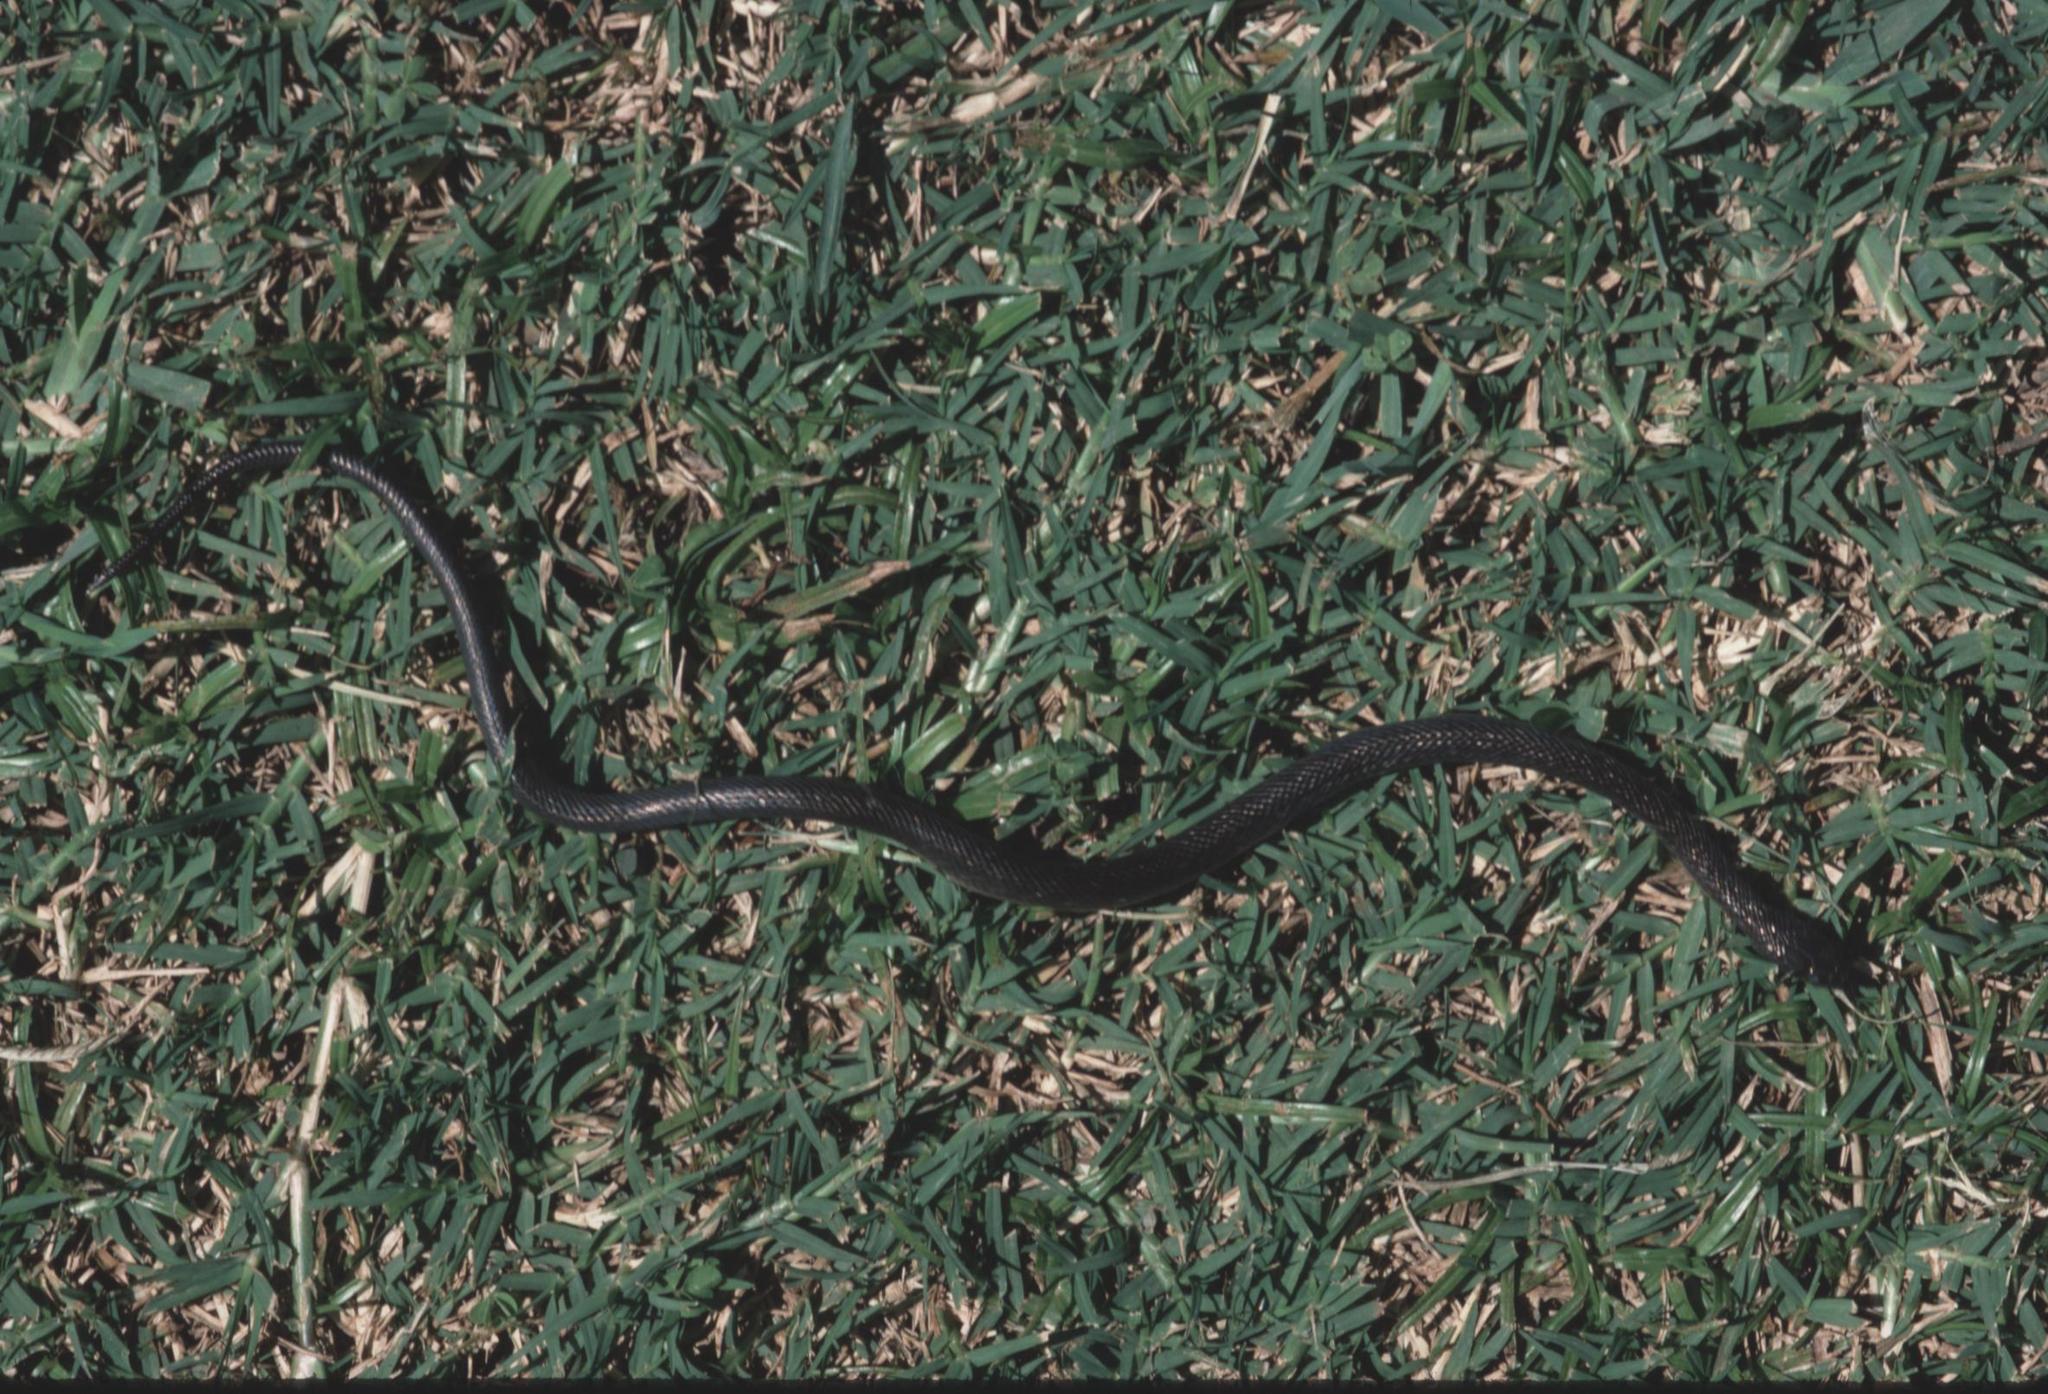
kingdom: Animalia
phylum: Chordata
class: Squamata
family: Lamprophiidae
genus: Lycodonomorphus
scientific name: Lycodonomorphus mlanjensis
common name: Mlanje white-bellied water-snake
